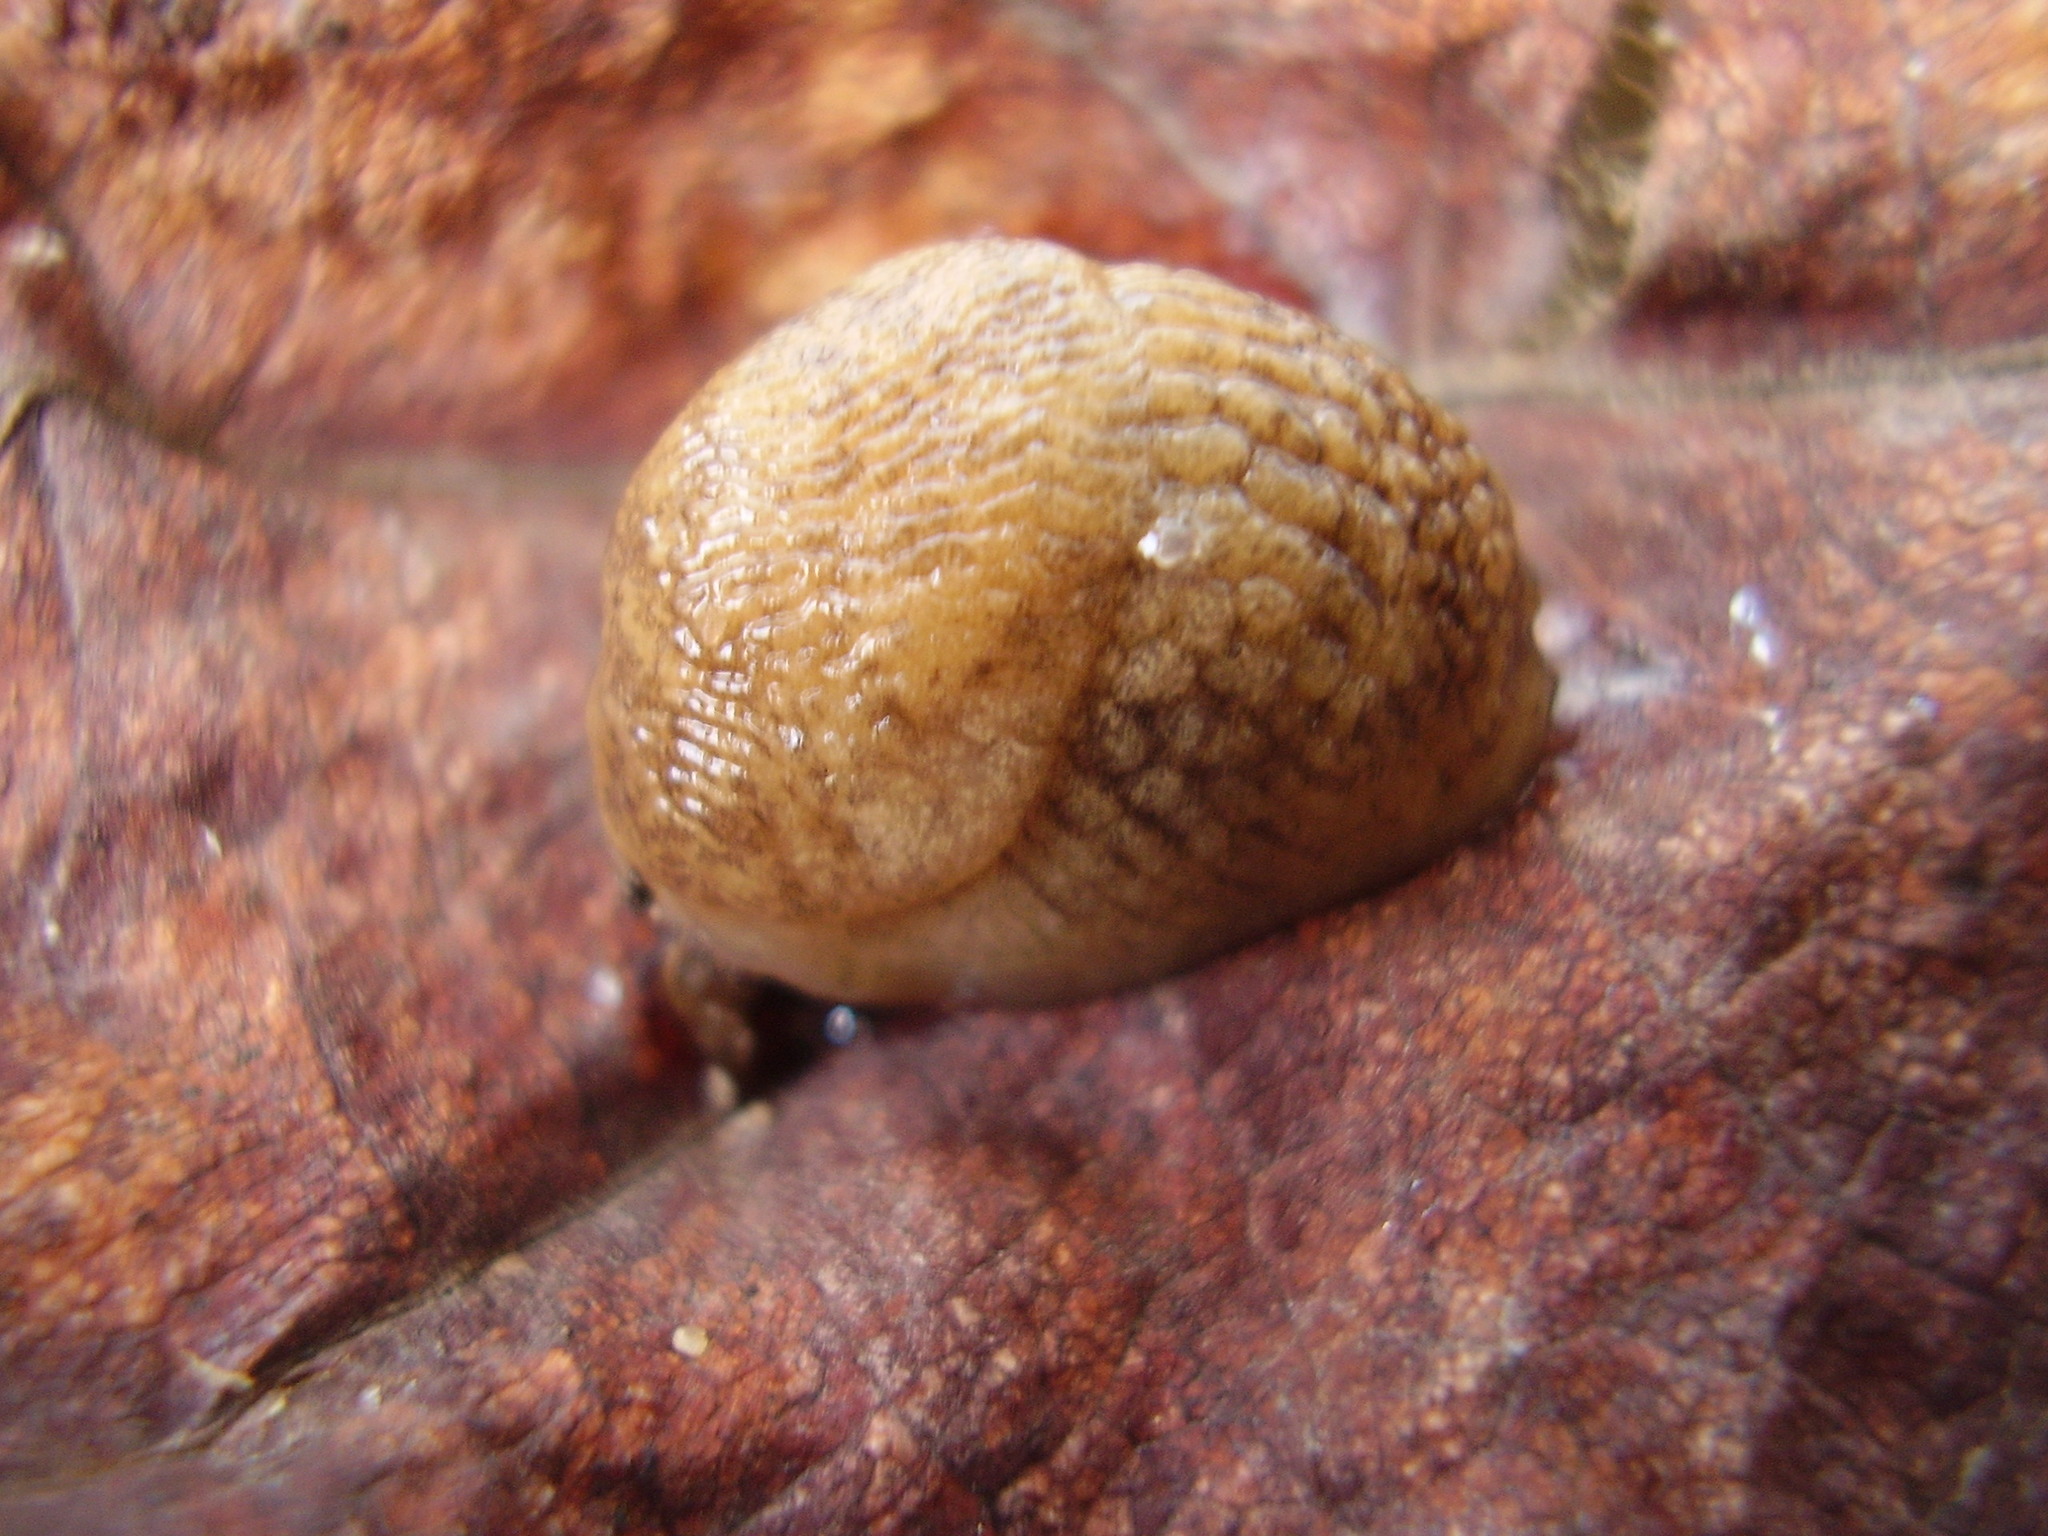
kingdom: Animalia
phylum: Mollusca
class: Gastropoda
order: Stylommatophora
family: Agriolimacidae
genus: Deroceras
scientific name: Deroceras reticulatum
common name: Gray field slug
